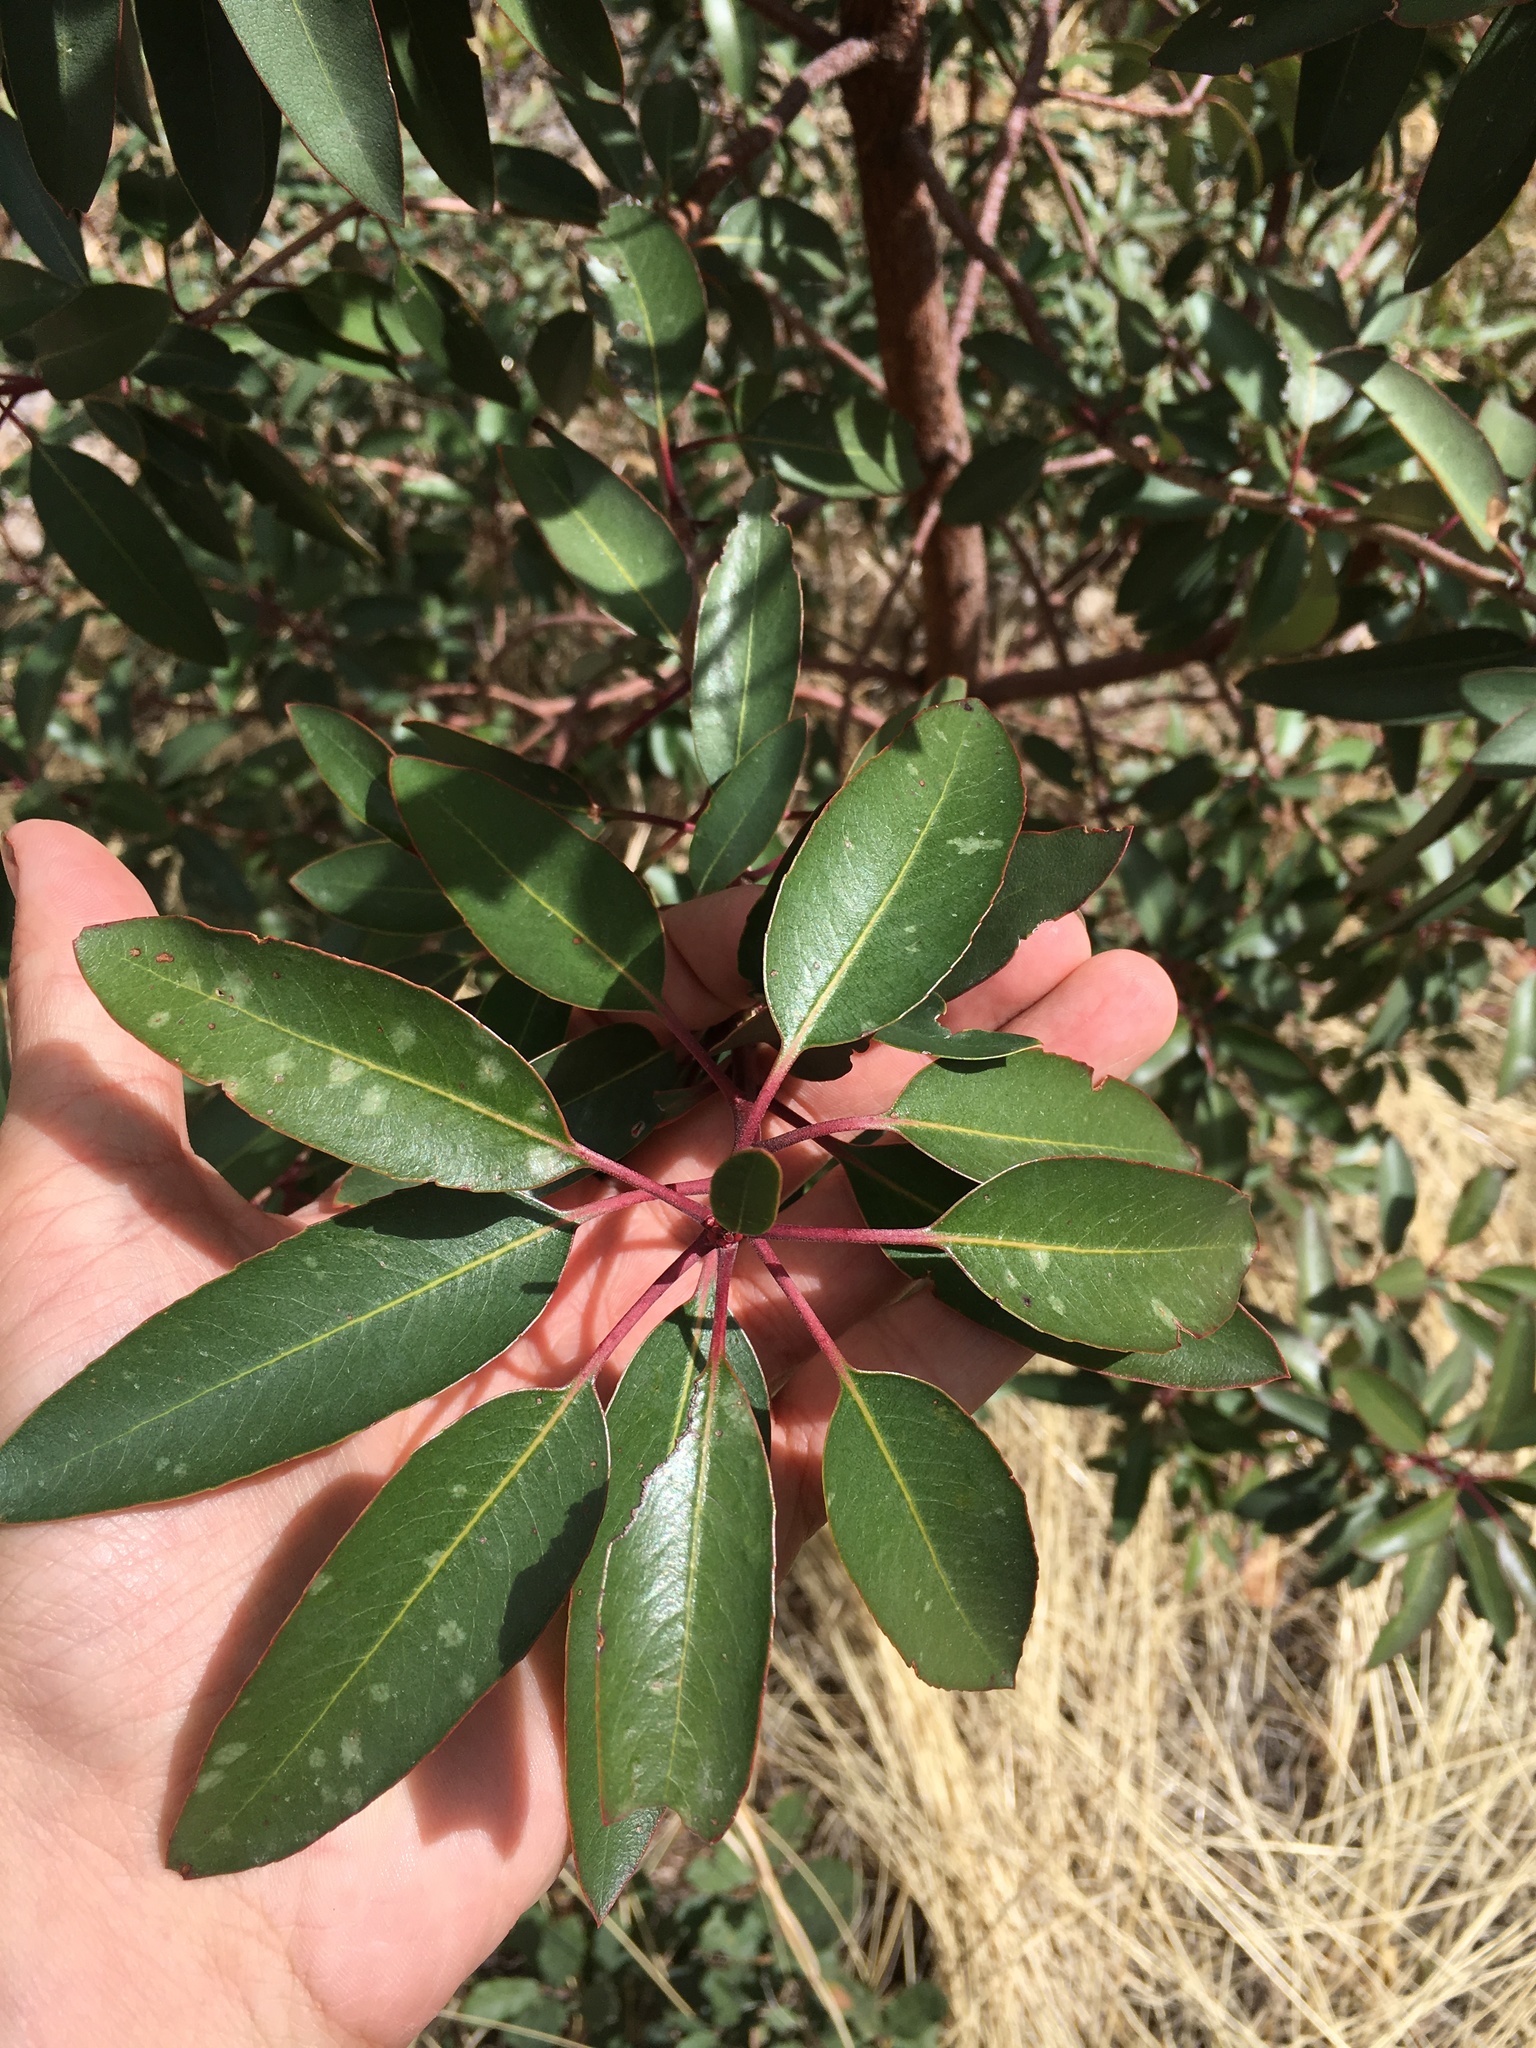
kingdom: Plantae
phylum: Tracheophyta
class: Magnoliopsida
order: Ericales
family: Ericaceae
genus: Arbutus
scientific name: Arbutus arizonica
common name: Arizona madrone
